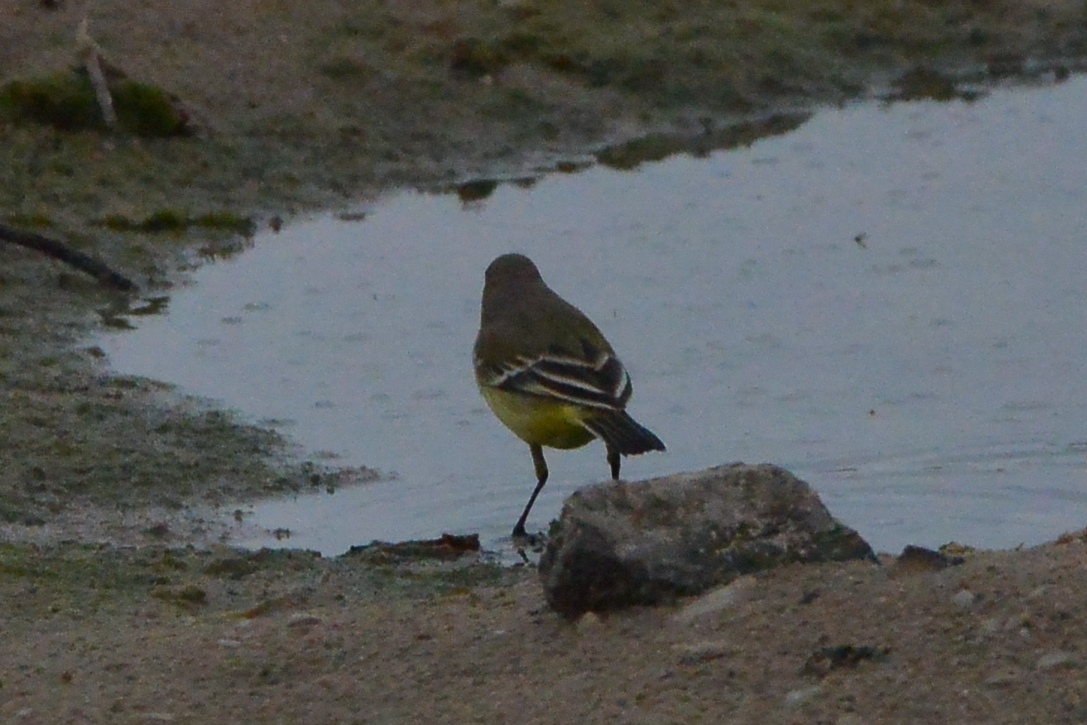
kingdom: Animalia
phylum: Chordata
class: Aves
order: Passeriformes
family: Motacillidae
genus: Motacilla
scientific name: Motacilla flava
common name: Western yellow wagtail
